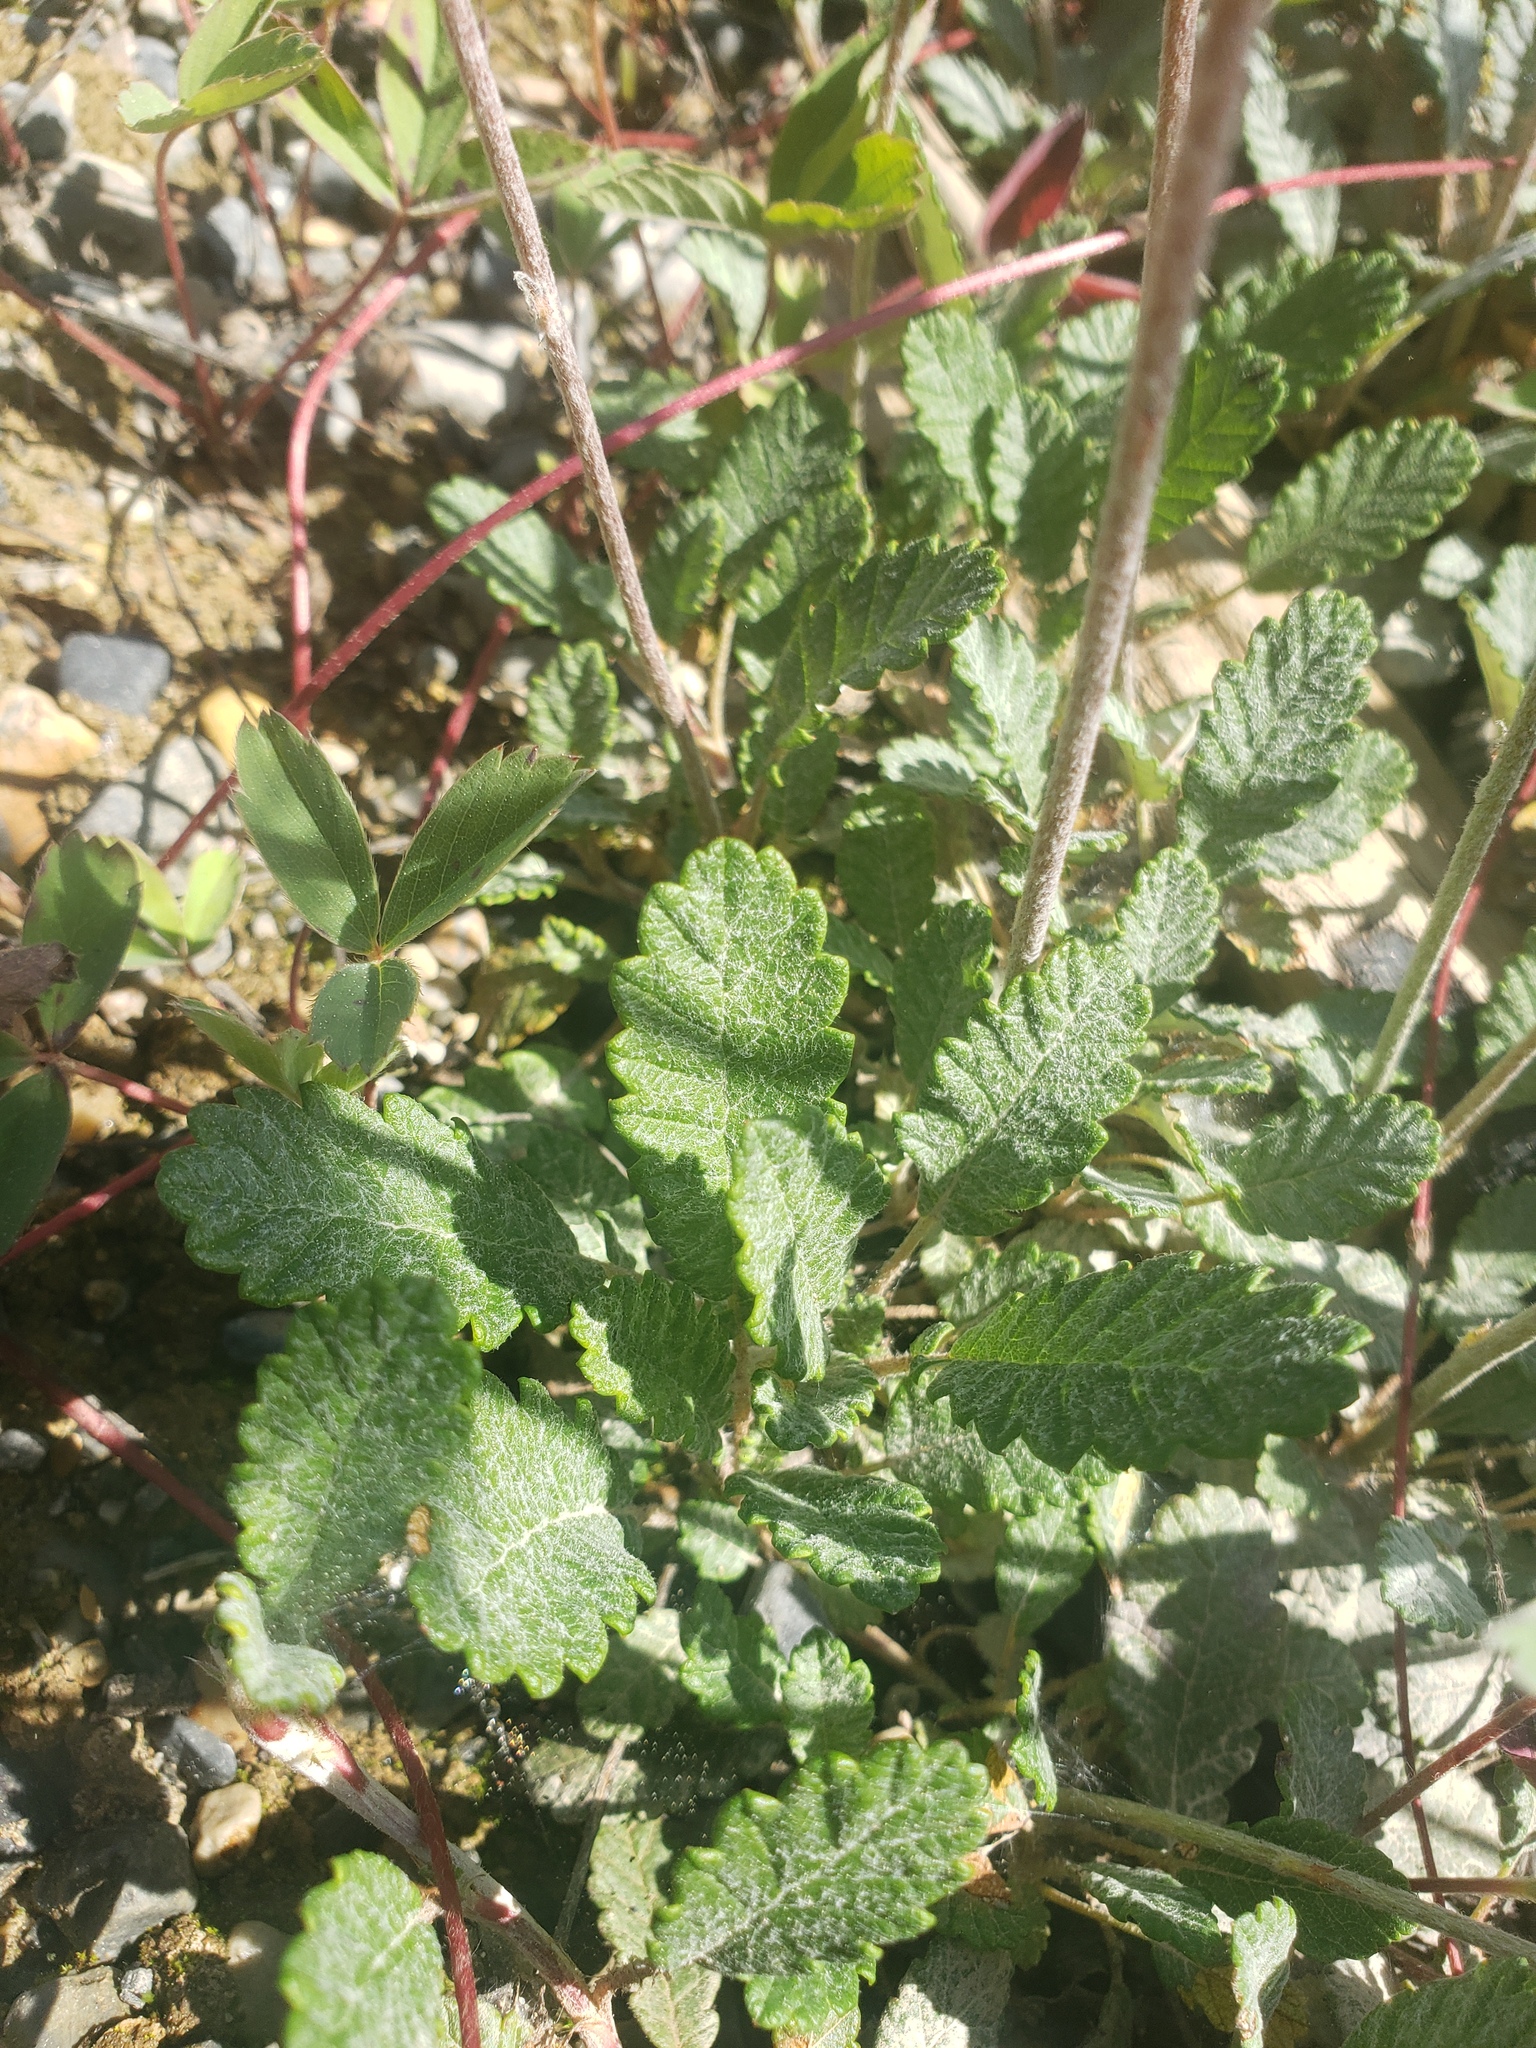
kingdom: Plantae
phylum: Tracheophyta
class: Magnoliopsida
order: Rosales
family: Rosaceae
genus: Dryas
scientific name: Dryas drummondii
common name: Drummond's dryad
